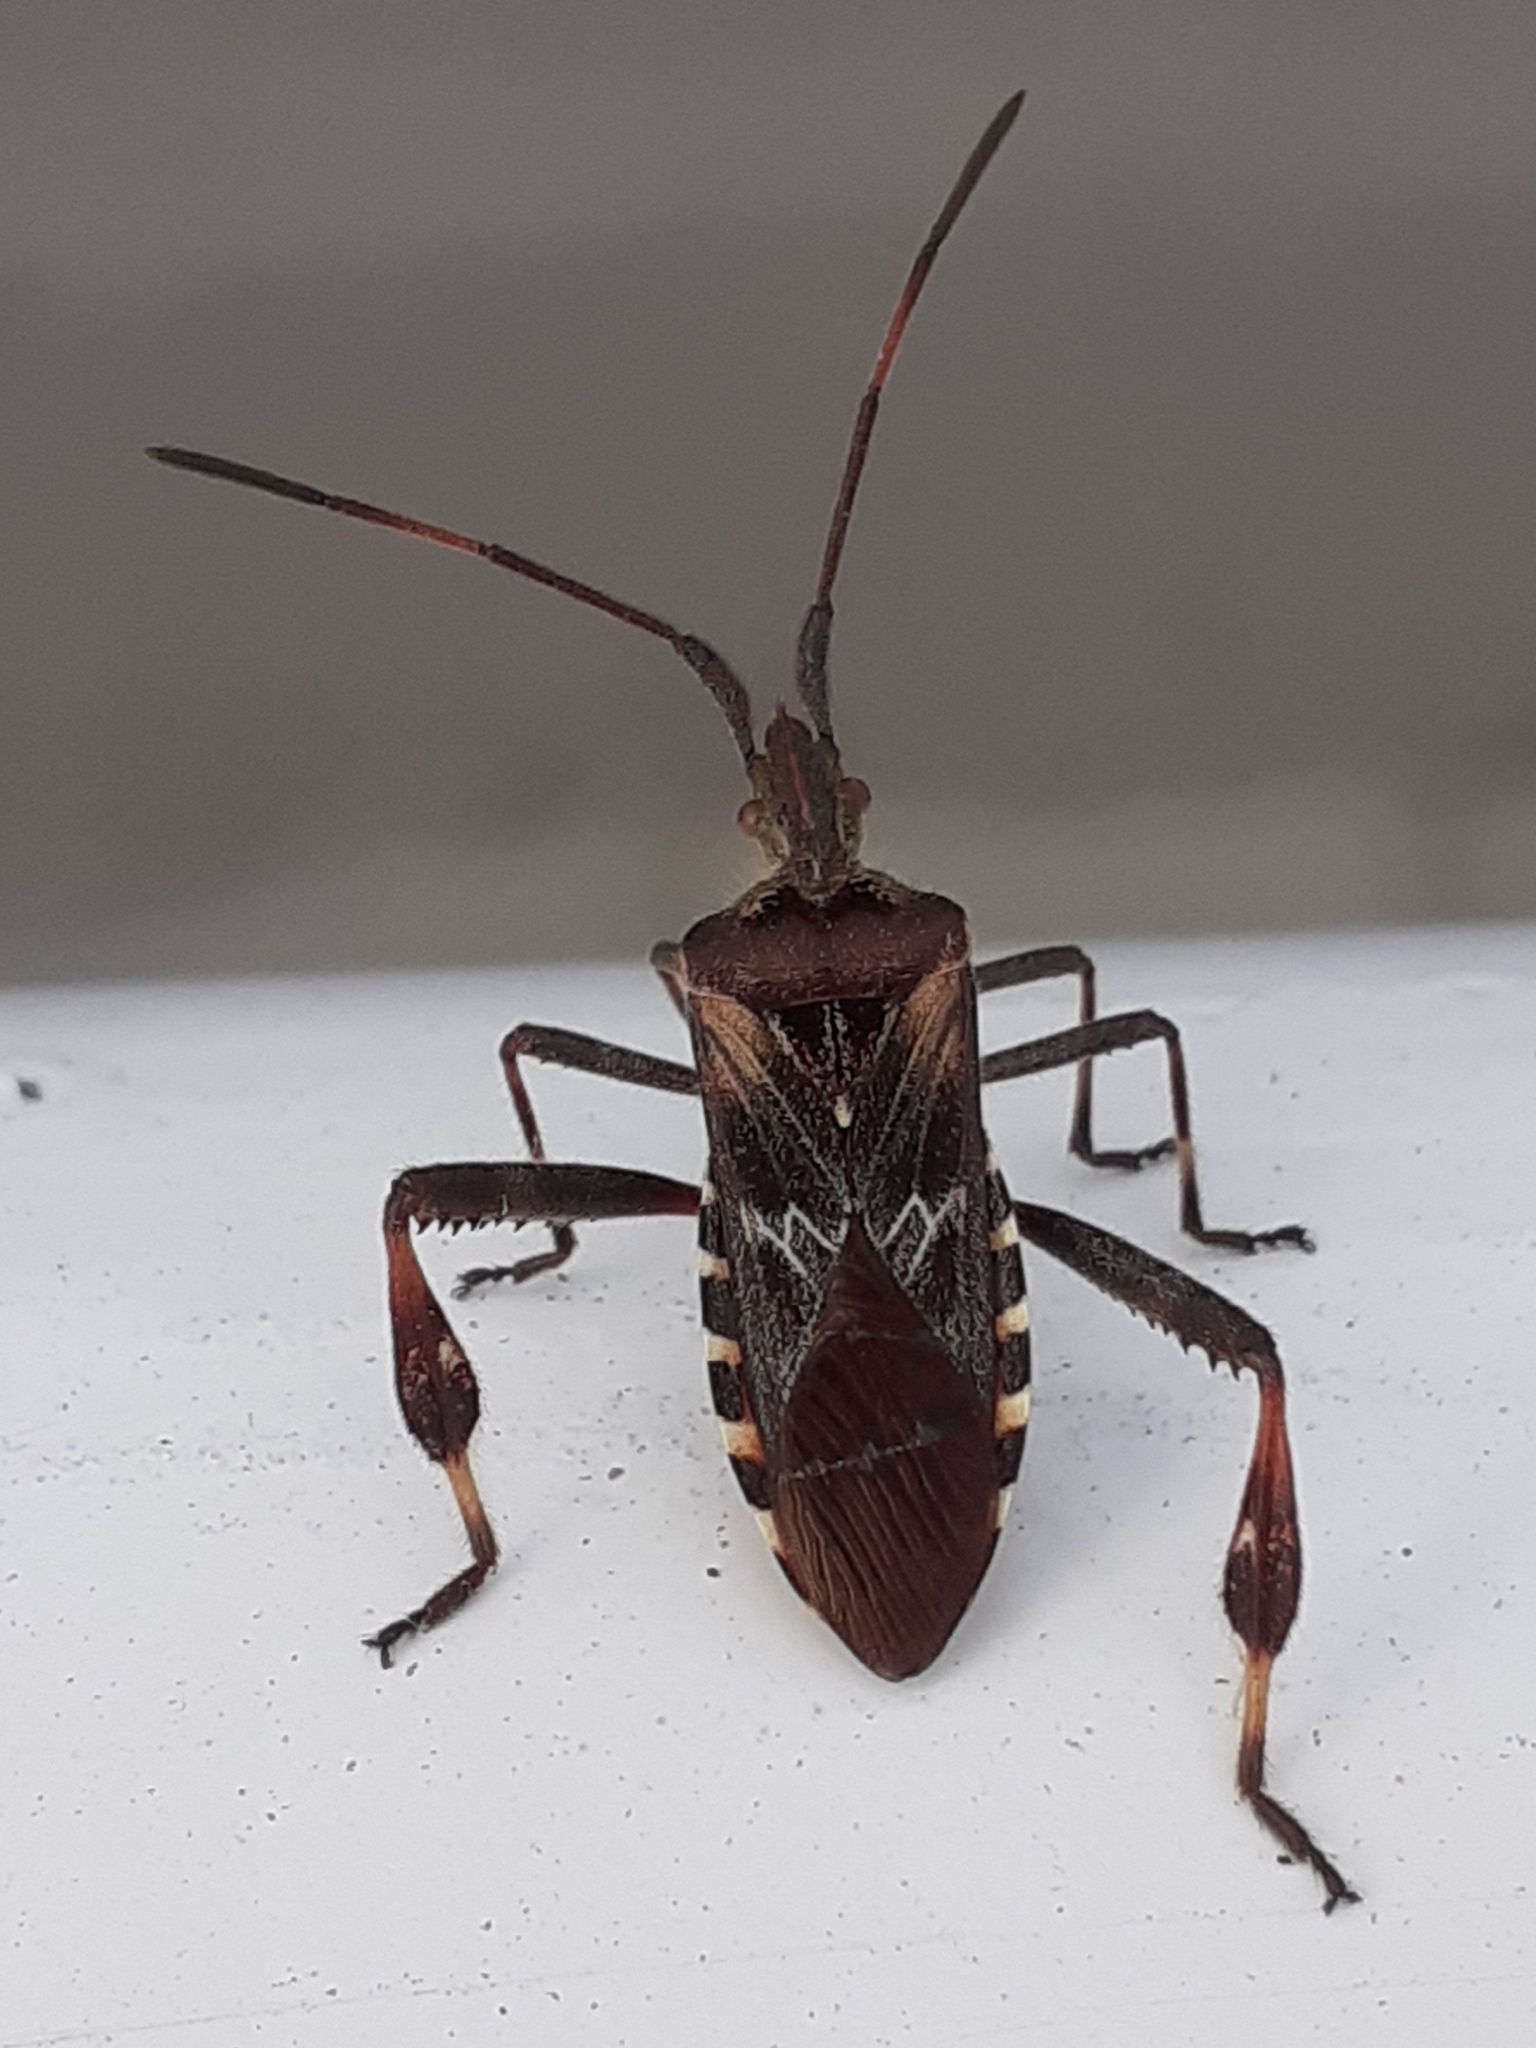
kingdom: Animalia
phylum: Arthropoda
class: Insecta
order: Hemiptera
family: Coreidae
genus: Leptoglossus
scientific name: Leptoglossus occidentalis
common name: Western conifer-seed bug
